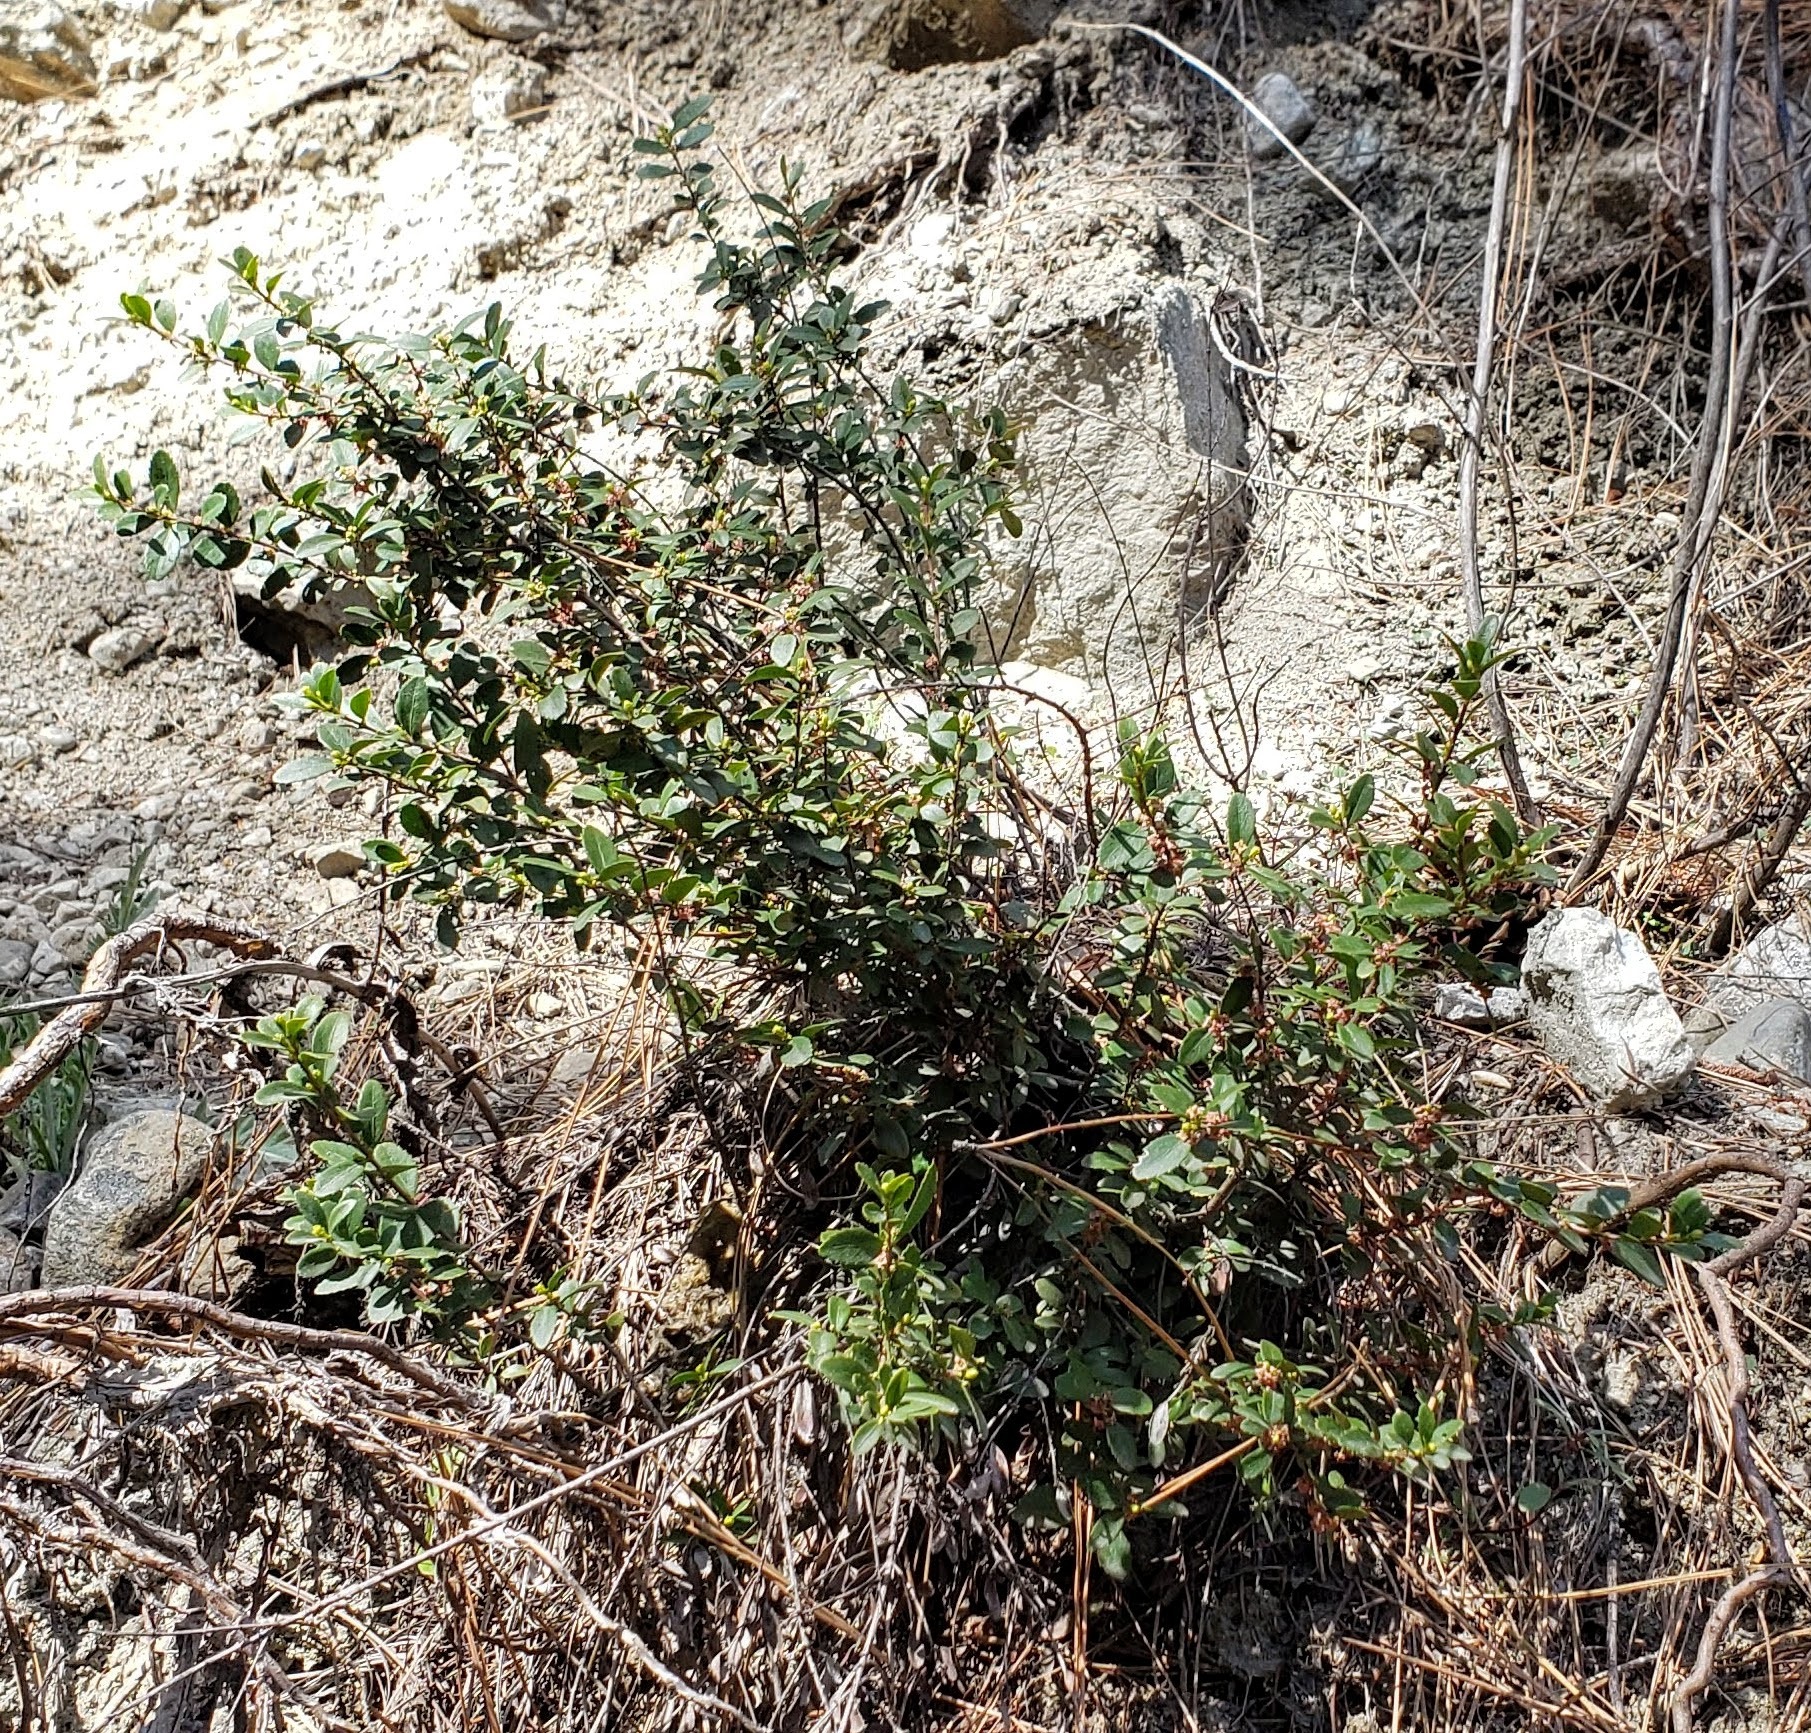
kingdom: Plantae
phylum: Tracheophyta
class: Magnoliopsida
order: Celastrales
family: Celastraceae
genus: Paxistima
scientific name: Paxistima myrsinites
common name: Mountain-lover
